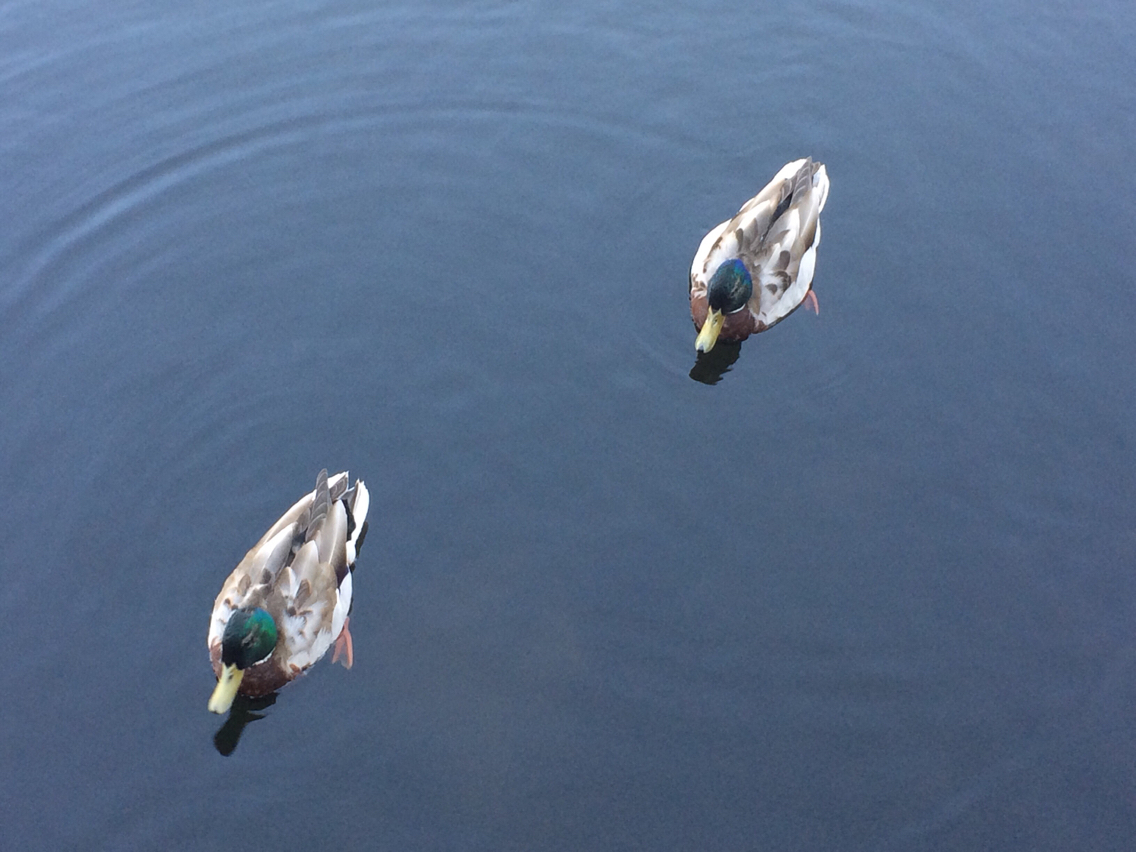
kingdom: Animalia
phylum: Chordata
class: Aves
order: Anseriformes
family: Anatidae
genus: Anas
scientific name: Anas platyrhynchos
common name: Mallard
